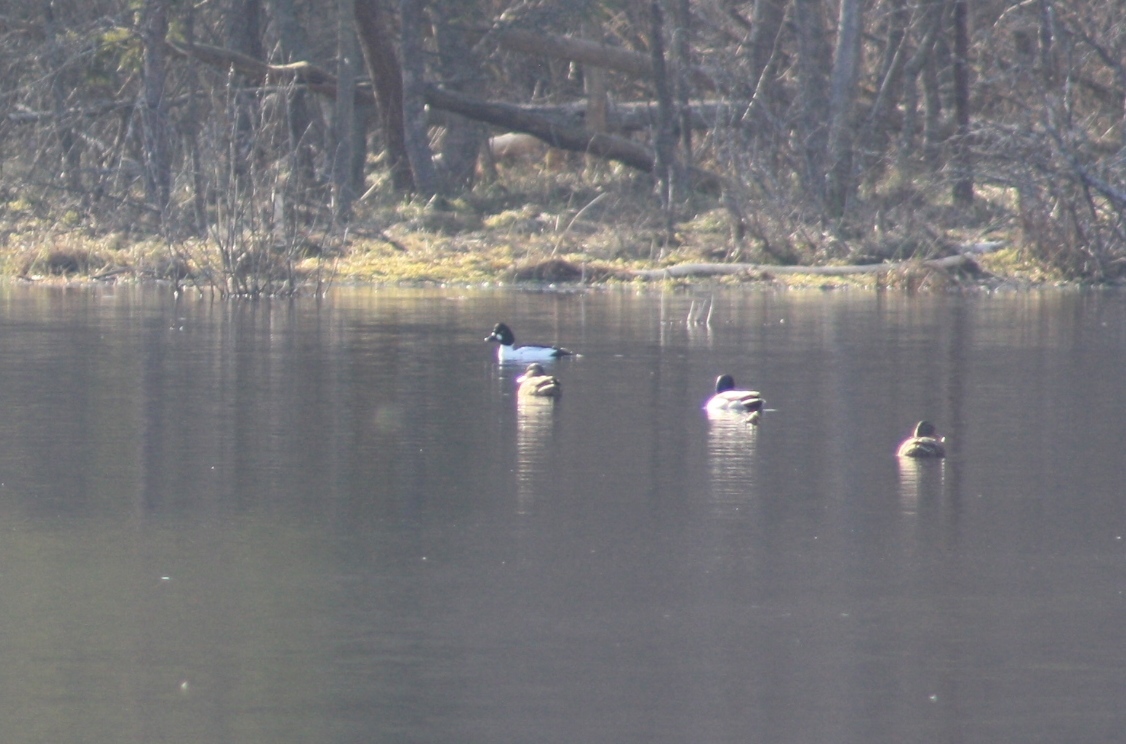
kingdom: Animalia
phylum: Chordata
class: Aves
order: Anseriformes
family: Anatidae
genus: Bucephala
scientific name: Bucephala clangula
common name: Common goldeneye
